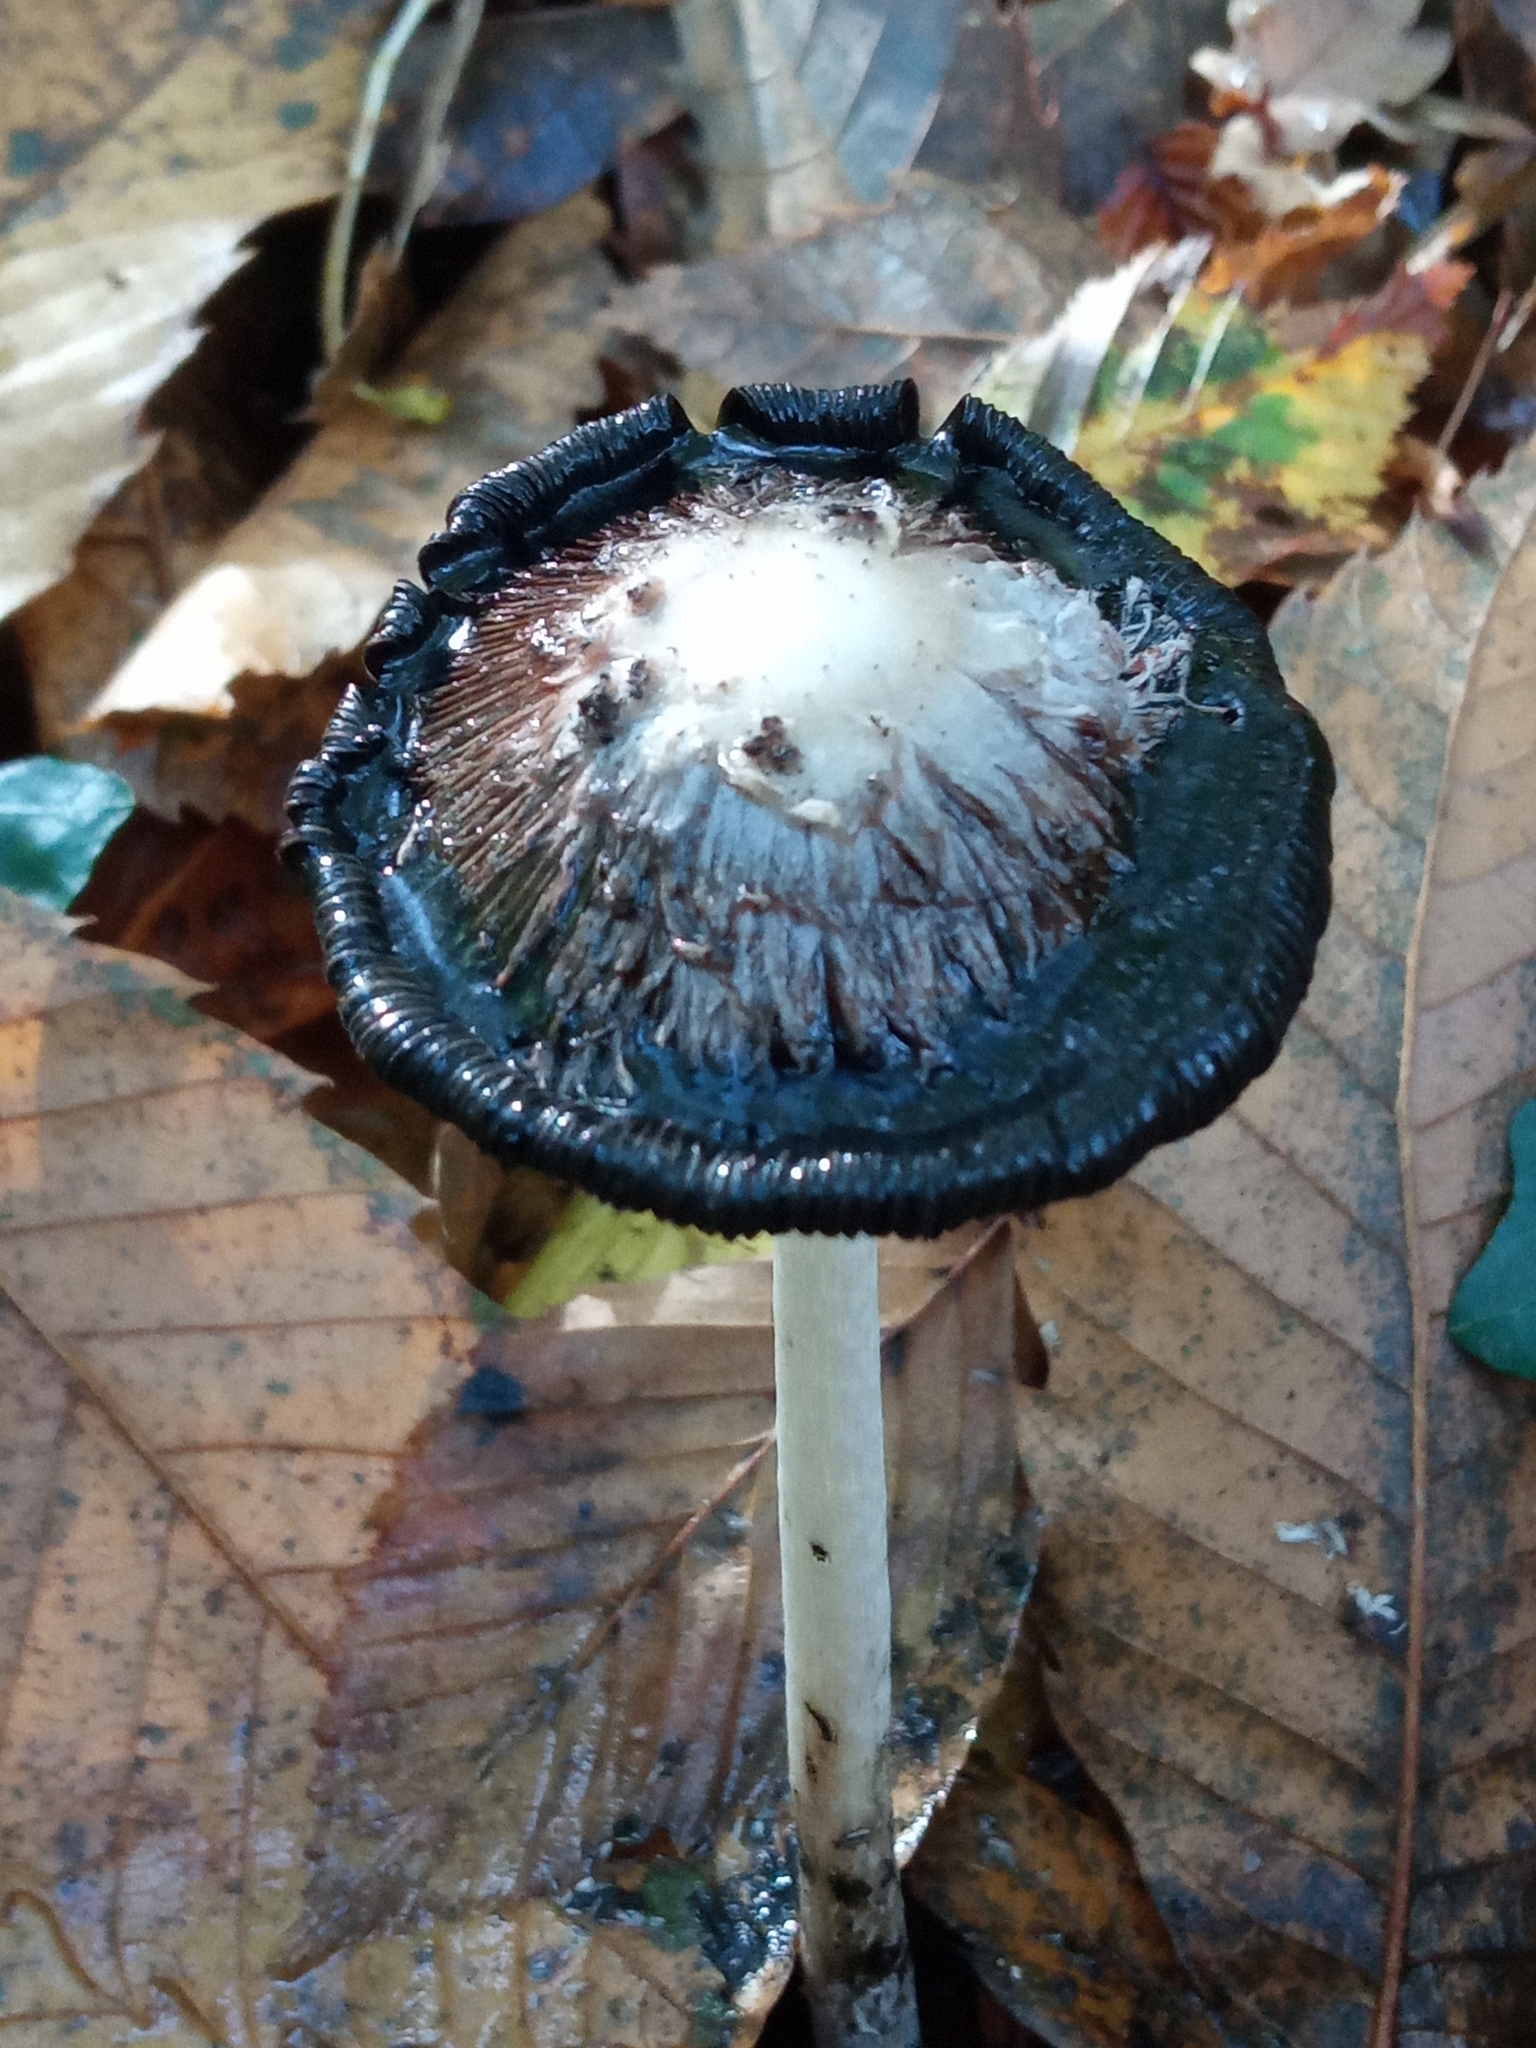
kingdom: Fungi
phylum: Basidiomycota
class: Agaricomycetes
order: Agaricales
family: Agaricaceae
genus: Coprinus
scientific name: Coprinus comatus
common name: Lawyer's wig
